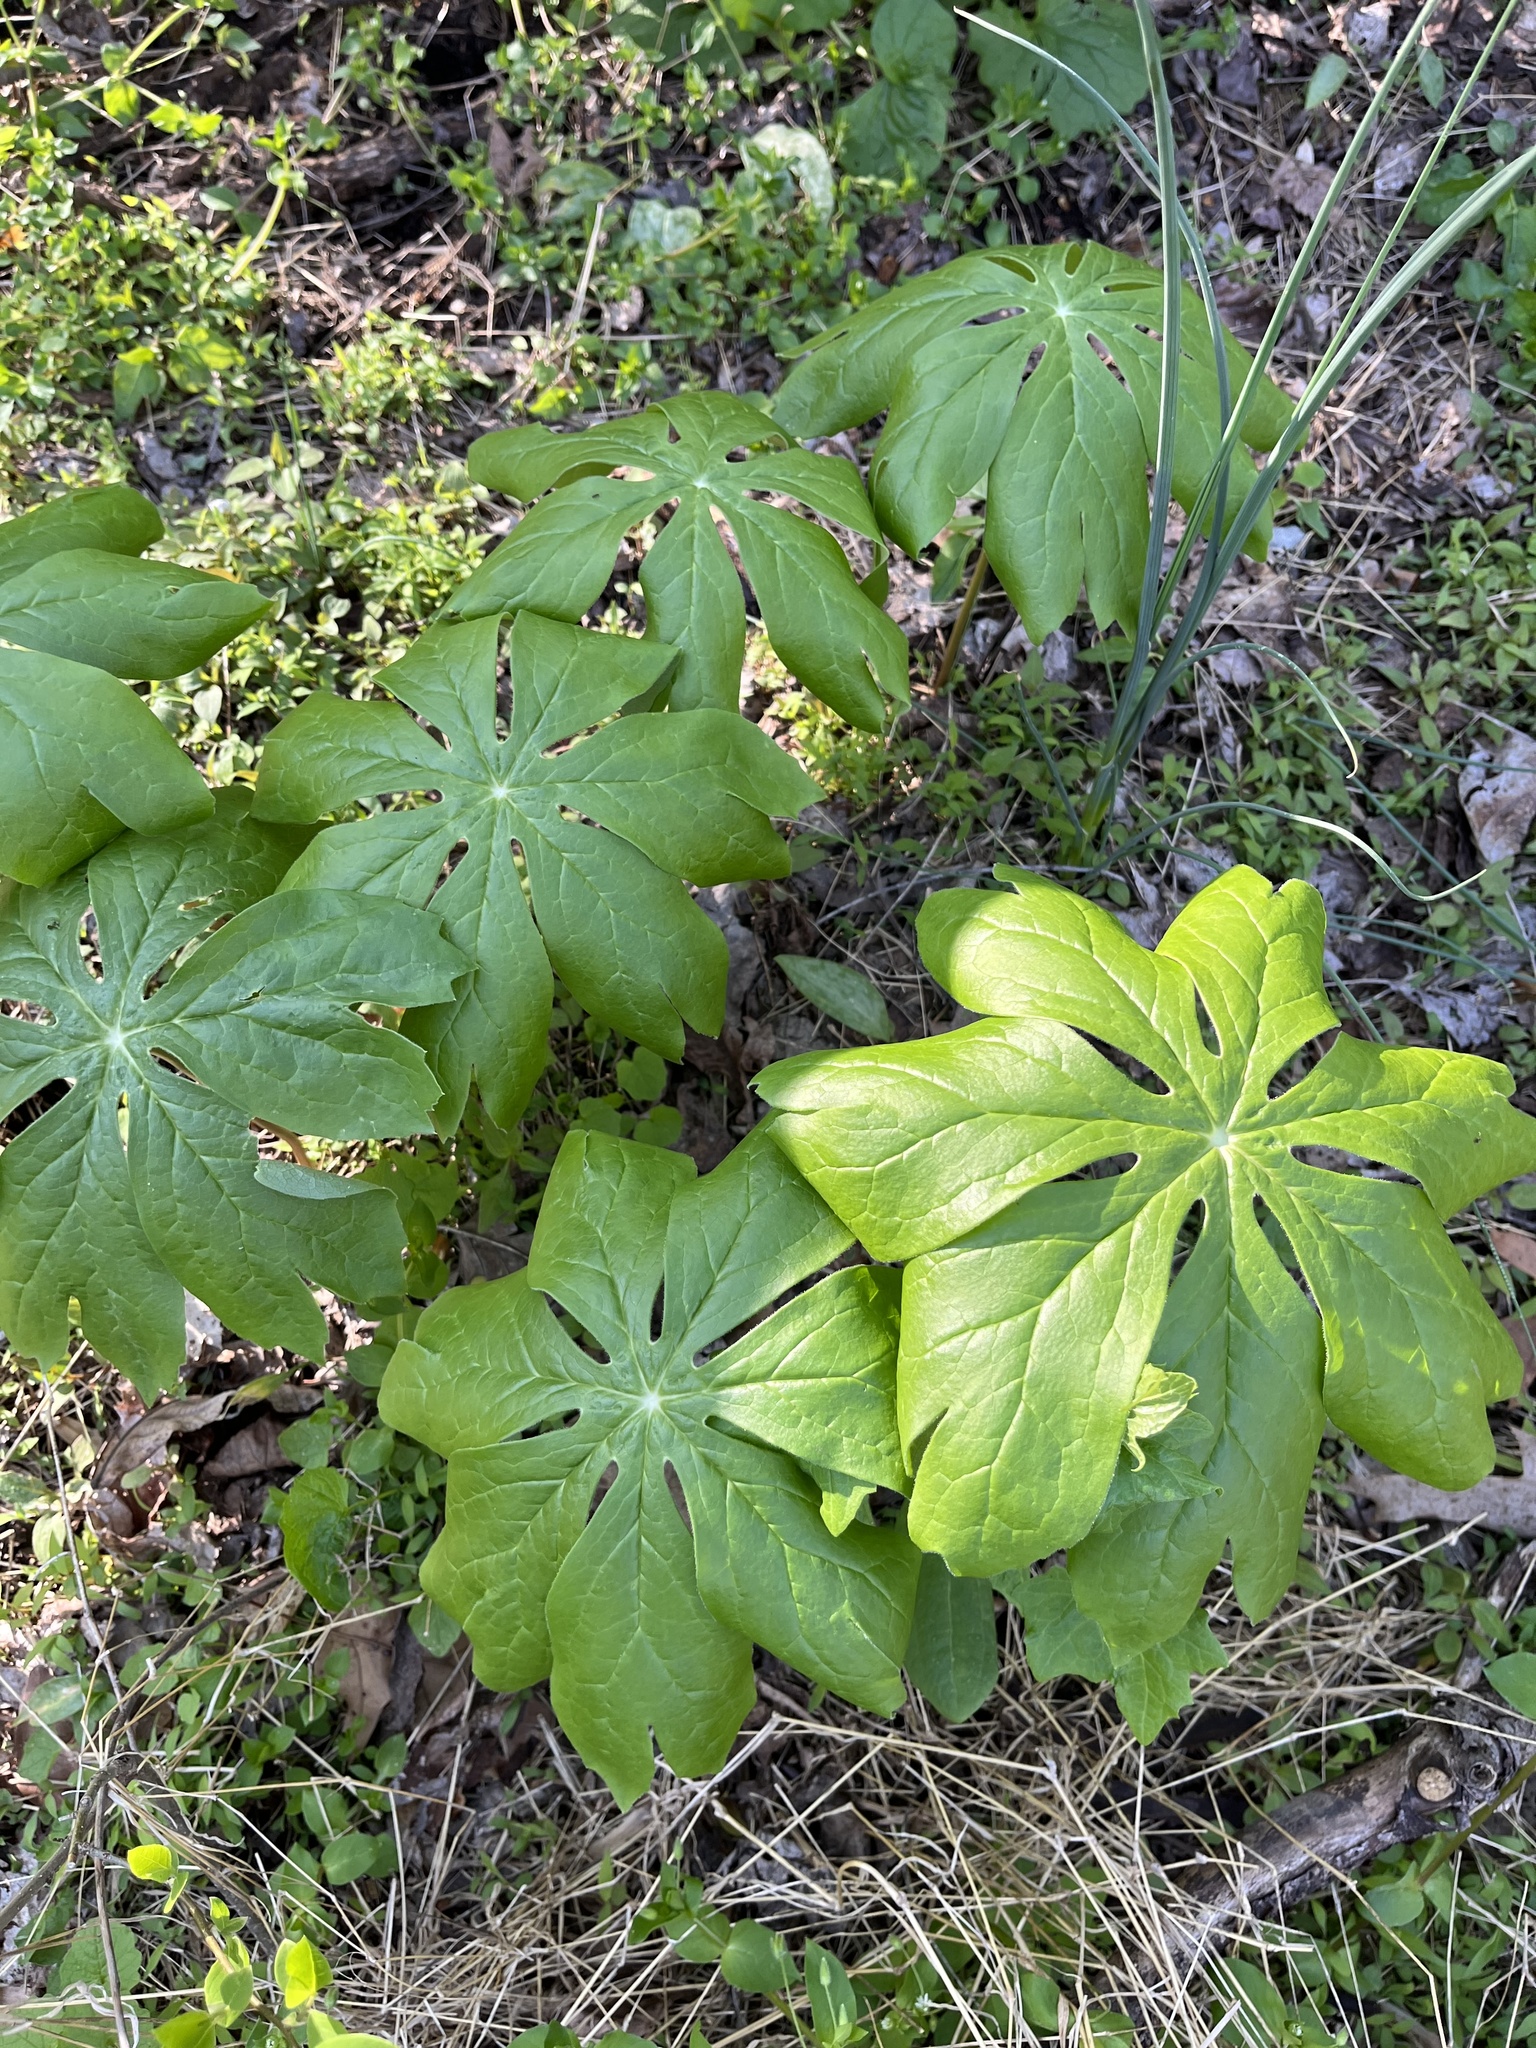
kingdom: Plantae
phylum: Tracheophyta
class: Magnoliopsida
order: Ranunculales
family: Berberidaceae
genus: Podophyllum
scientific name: Podophyllum peltatum
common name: Wild mandrake
